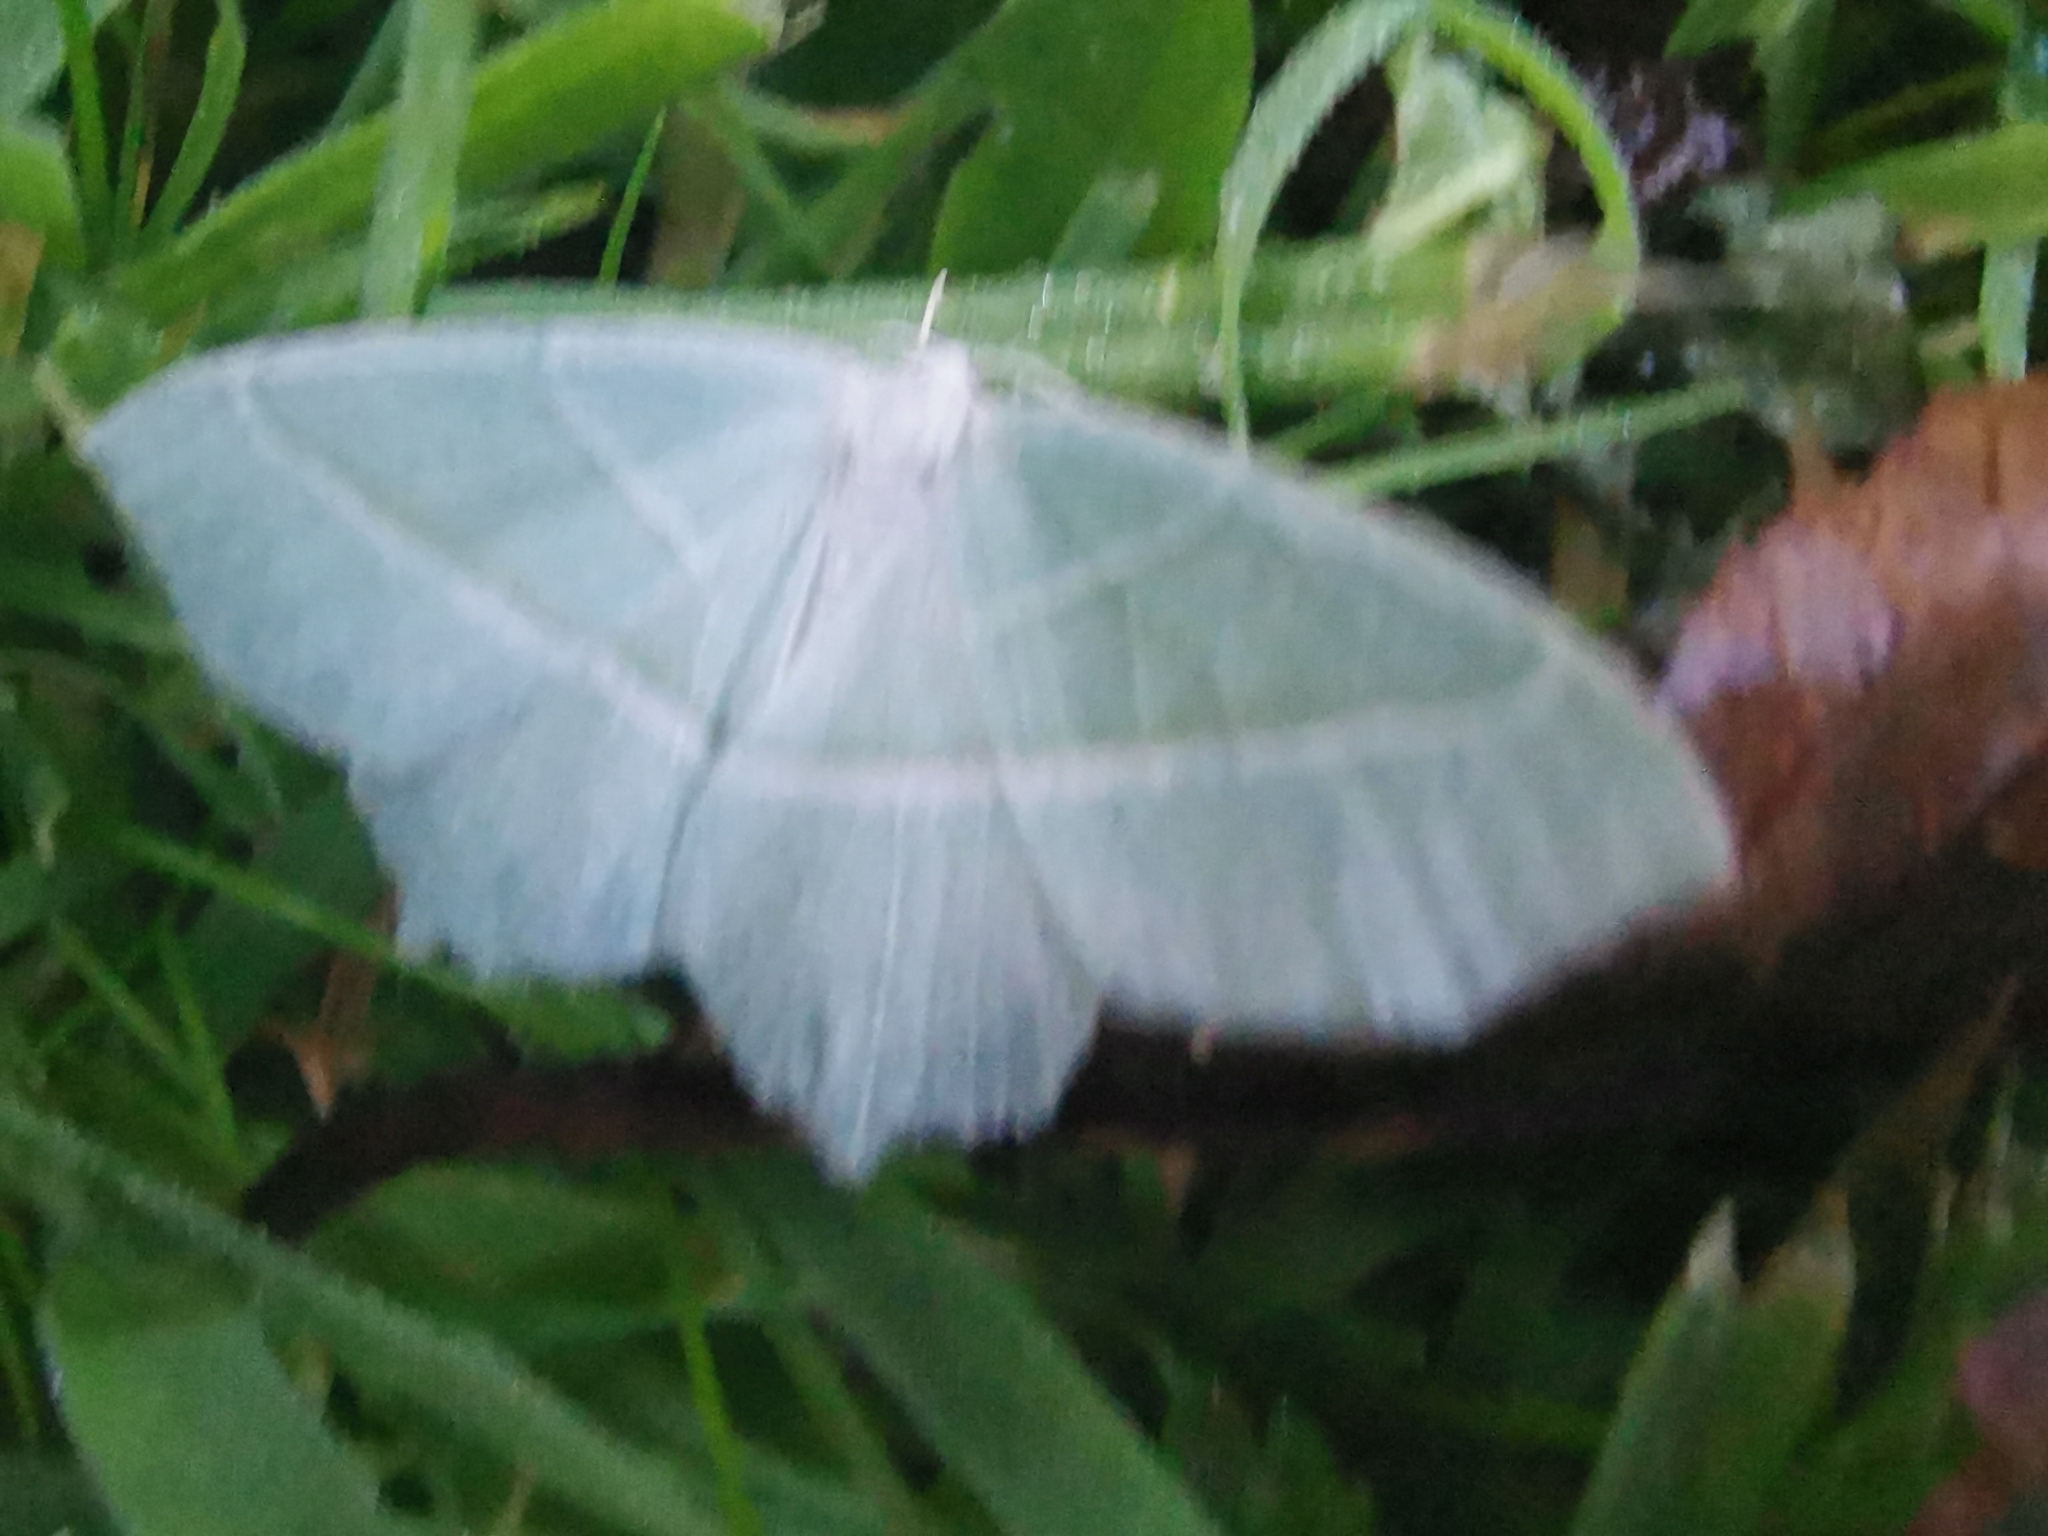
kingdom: Animalia
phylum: Arthropoda
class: Insecta
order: Lepidoptera
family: Geometridae
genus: Campaea
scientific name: Campaea margaritaria
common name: Light emerald
